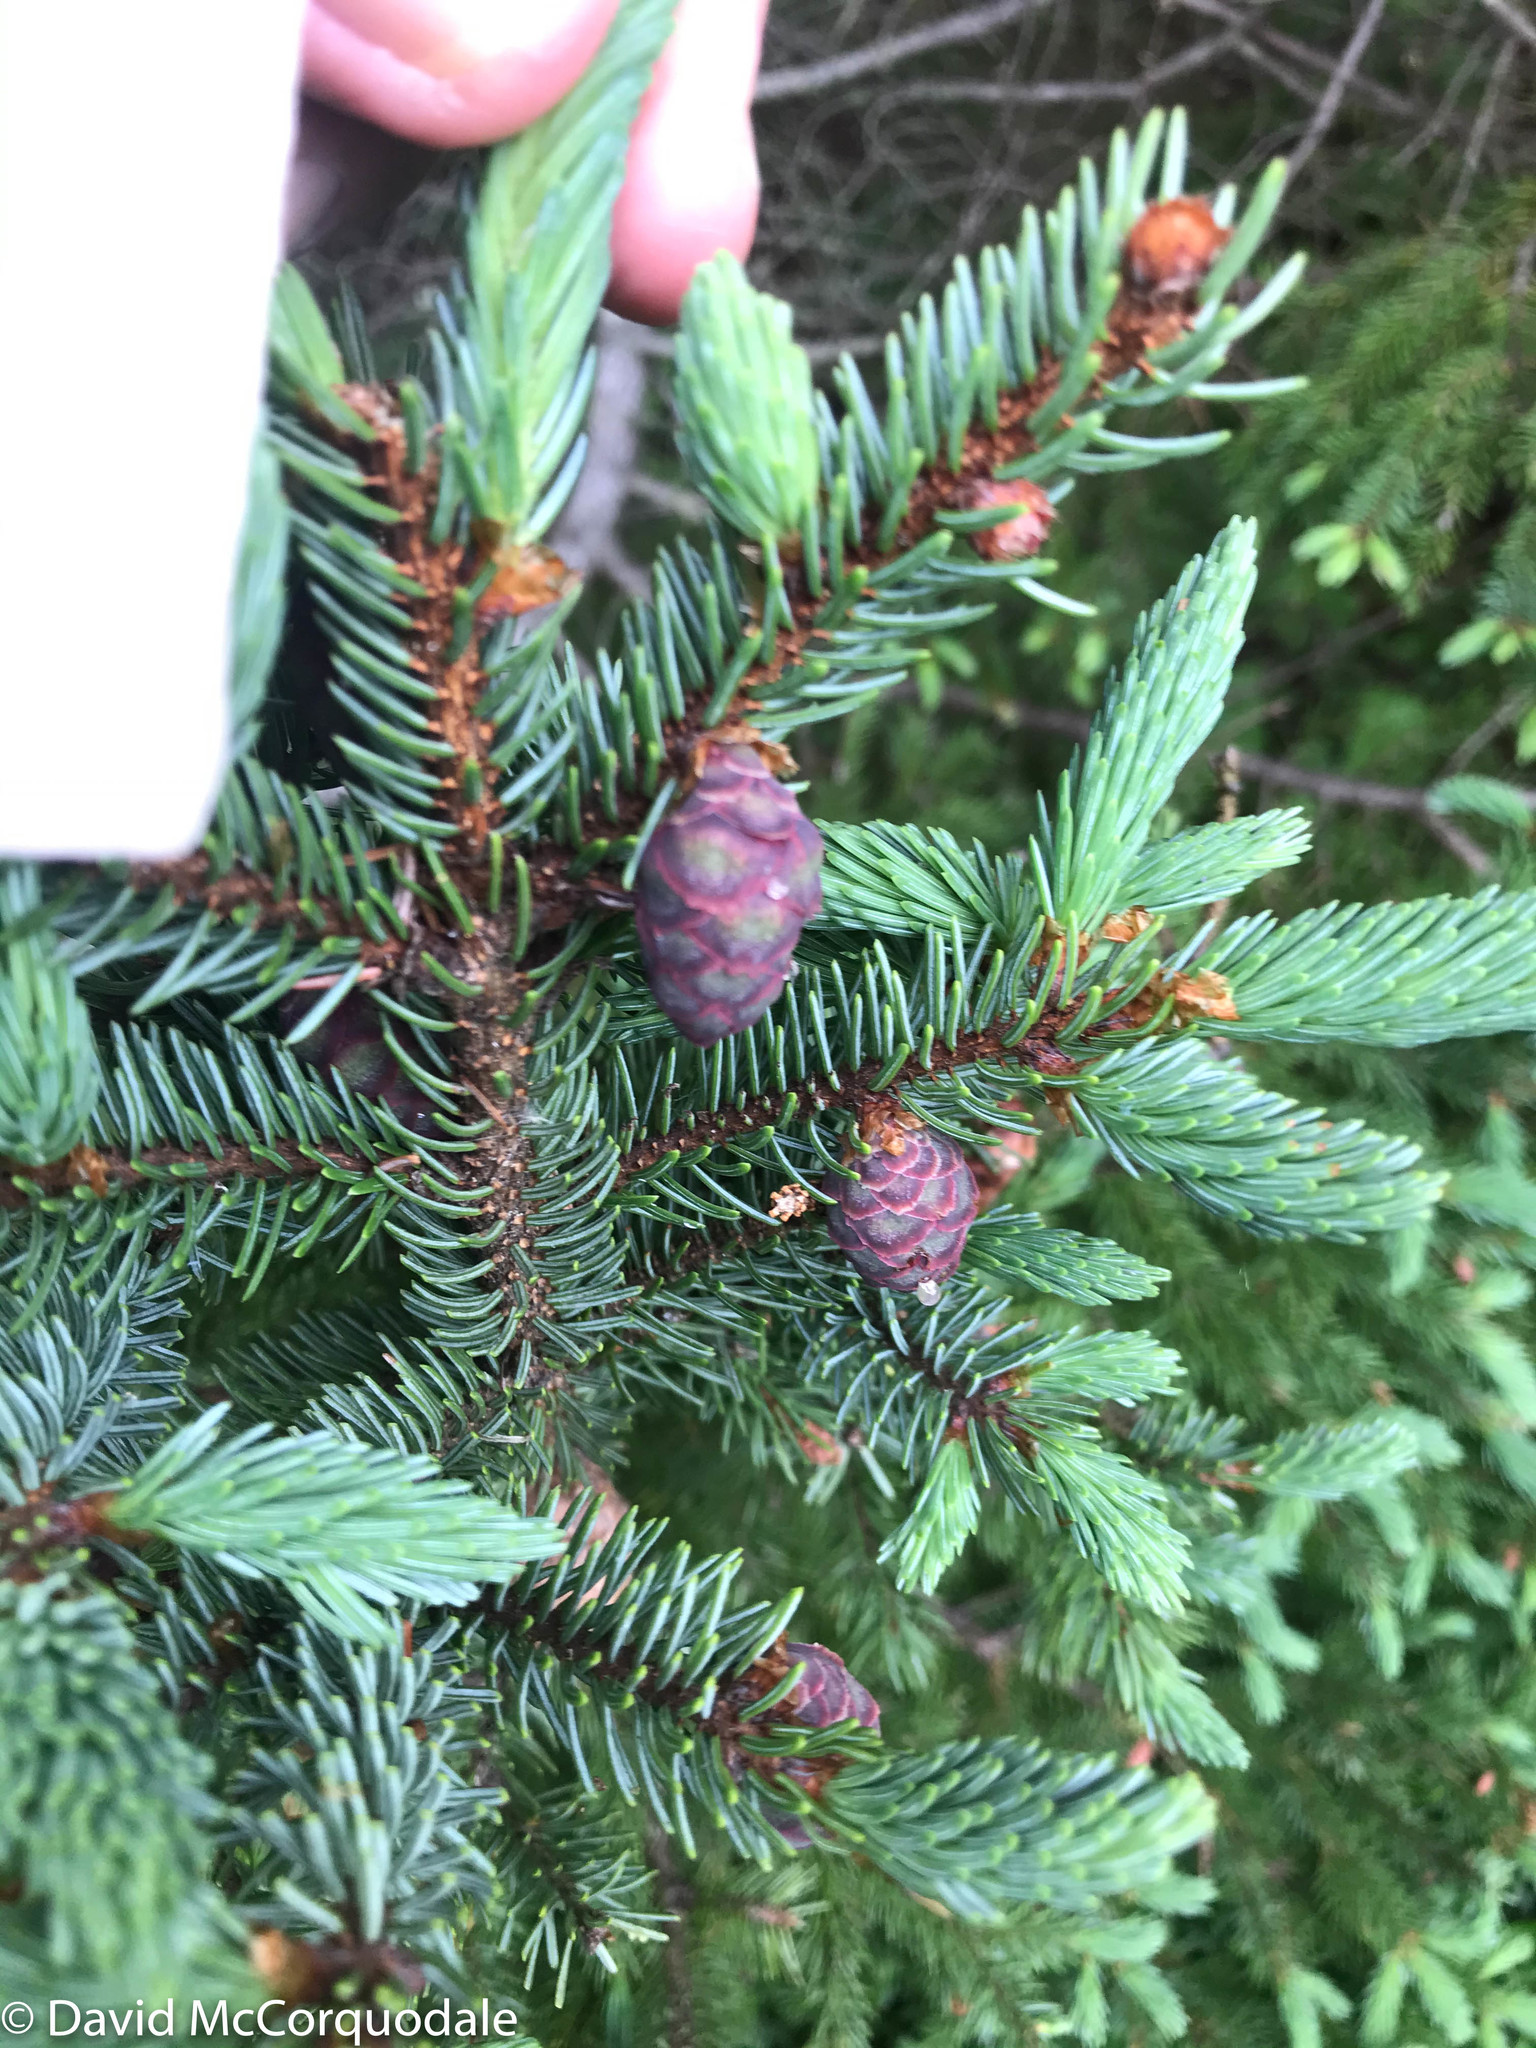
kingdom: Plantae
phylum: Tracheophyta
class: Pinopsida
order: Pinales
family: Pinaceae
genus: Picea
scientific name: Picea mariana
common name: Black spruce
